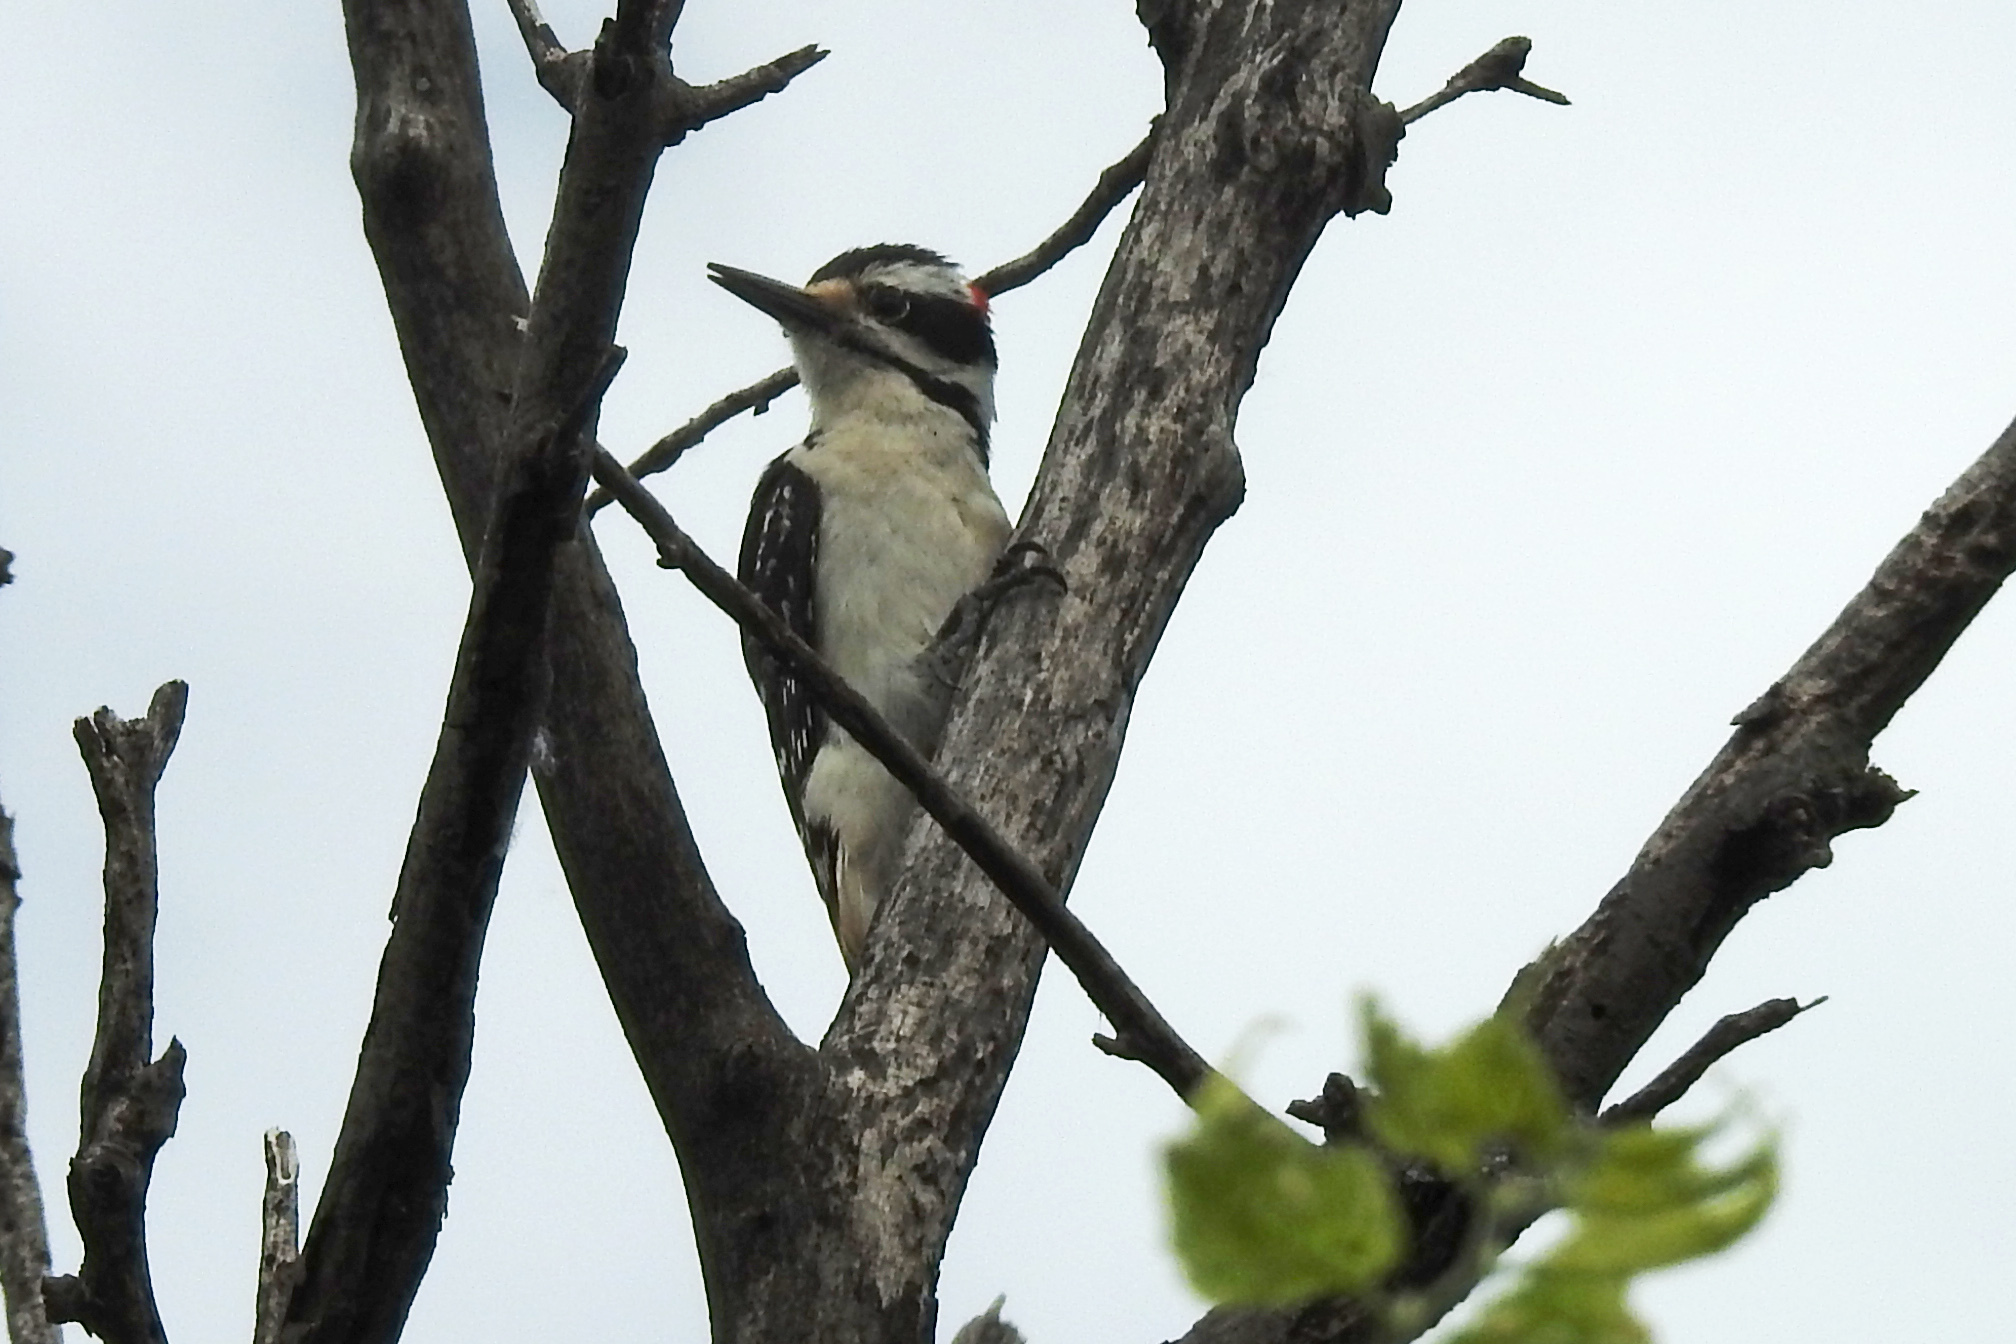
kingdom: Animalia
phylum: Chordata
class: Aves
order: Piciformes
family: Picidae
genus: Leuconotopicus
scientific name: Leuconotopicus villosus
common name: Hairy woodpecker
